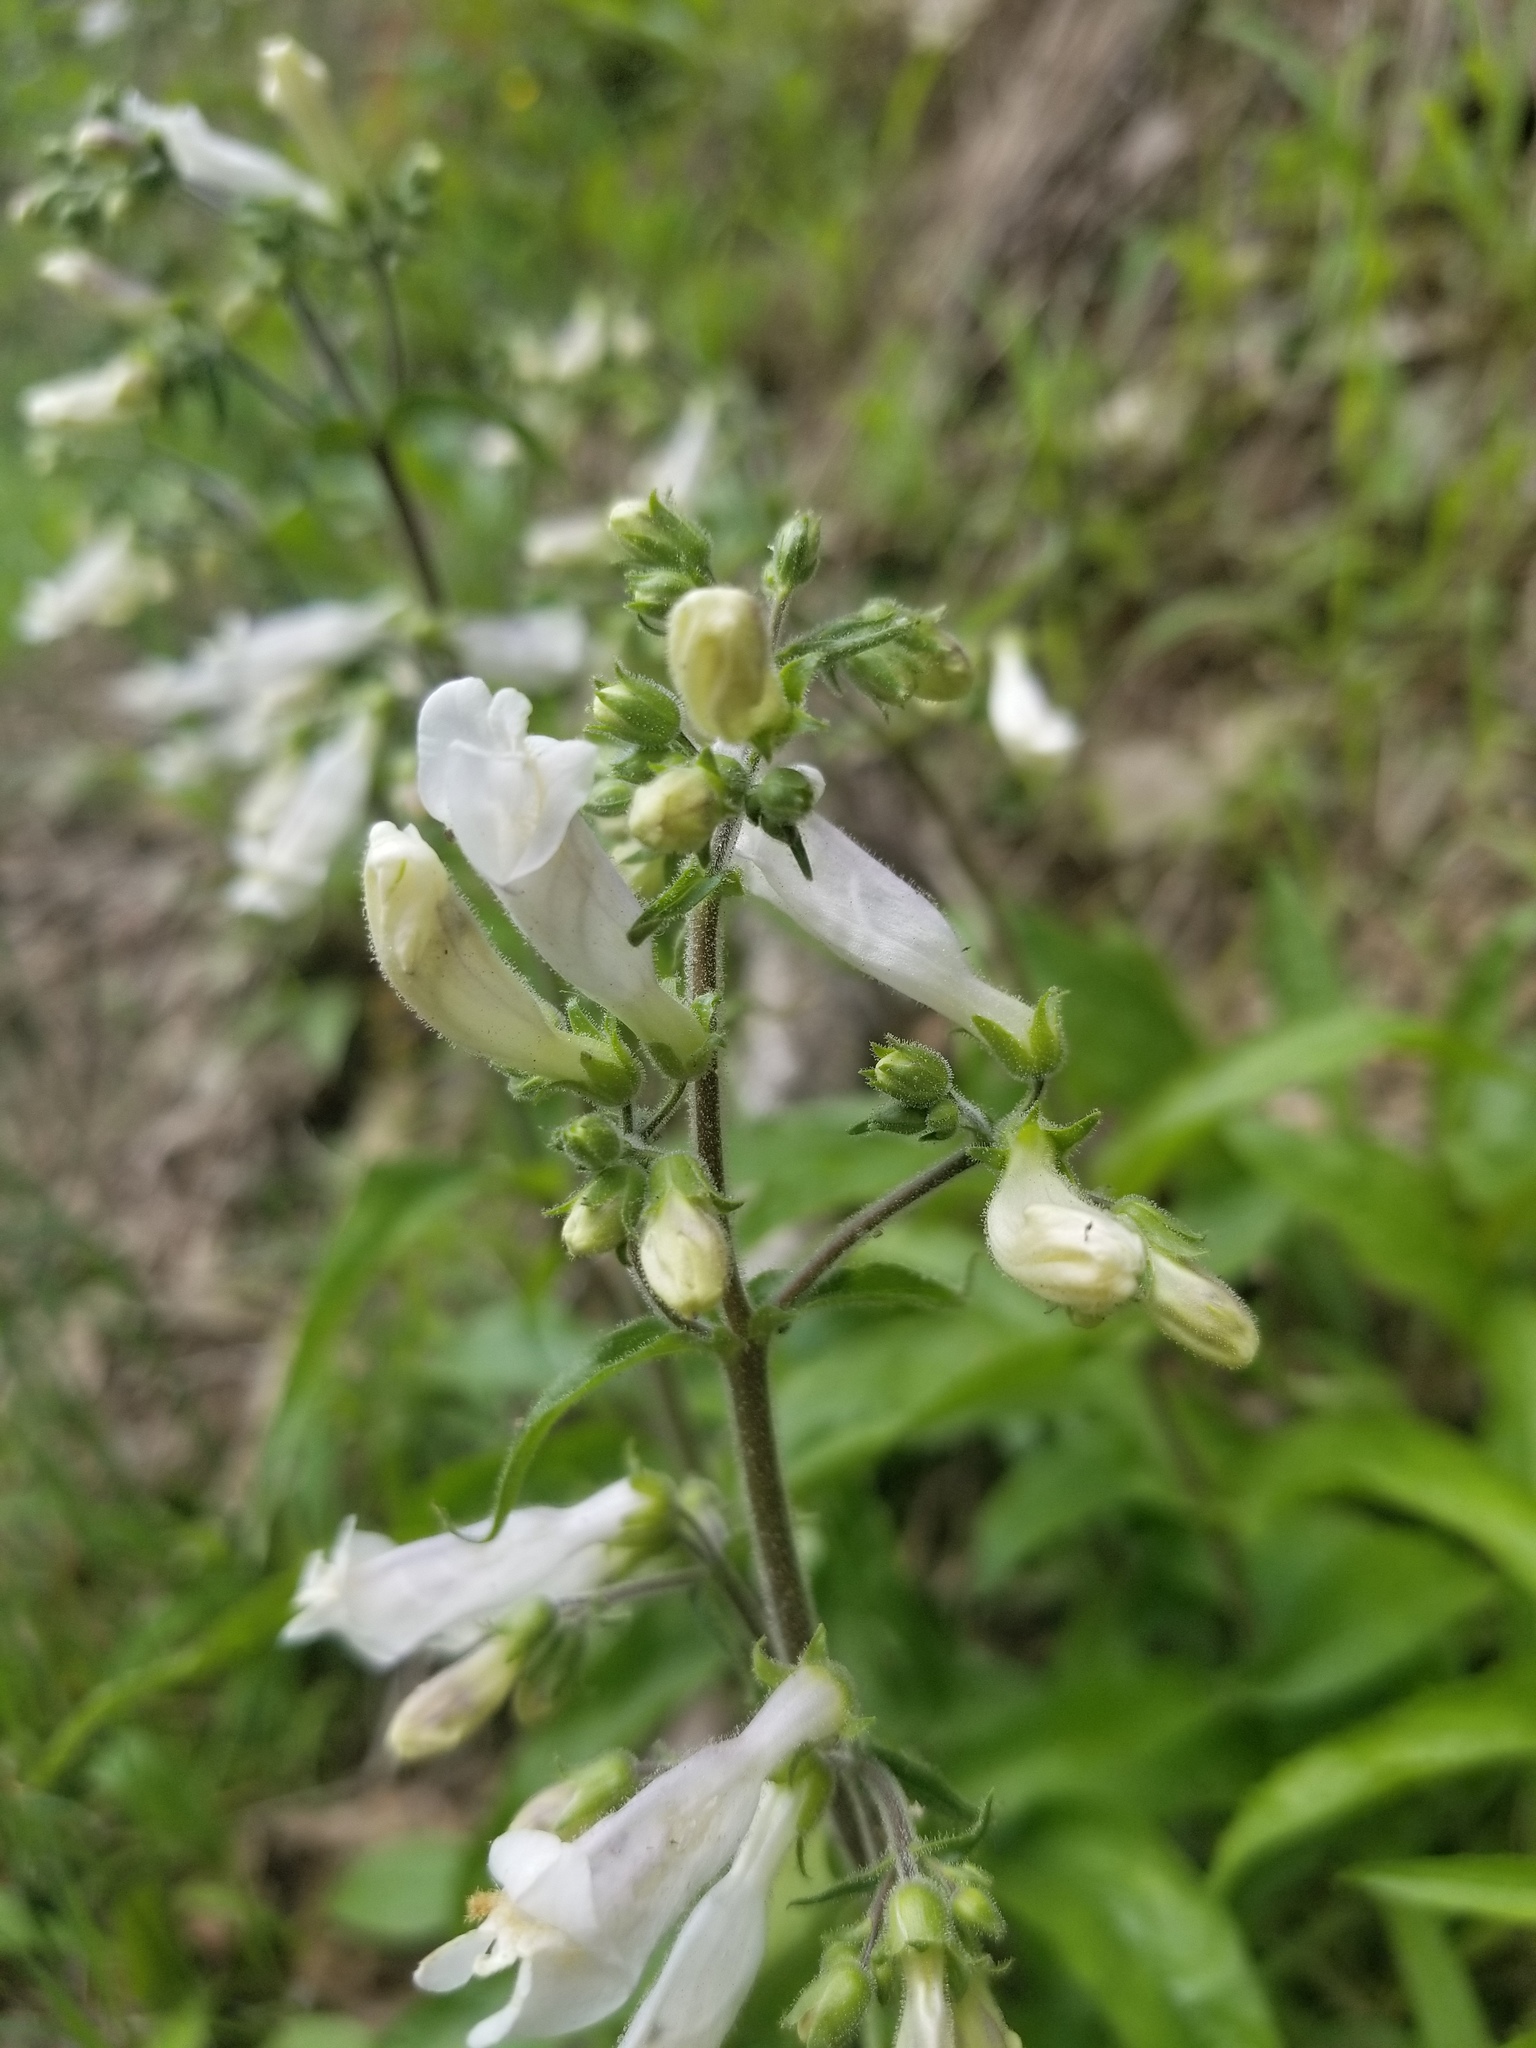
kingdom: Plantae
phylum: Tracheophyta
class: Magnoliopsida
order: Lamiales
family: Plantaginaceae
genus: Penstemon
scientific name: Penstemon hirsutus
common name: Hairy beardtongue
